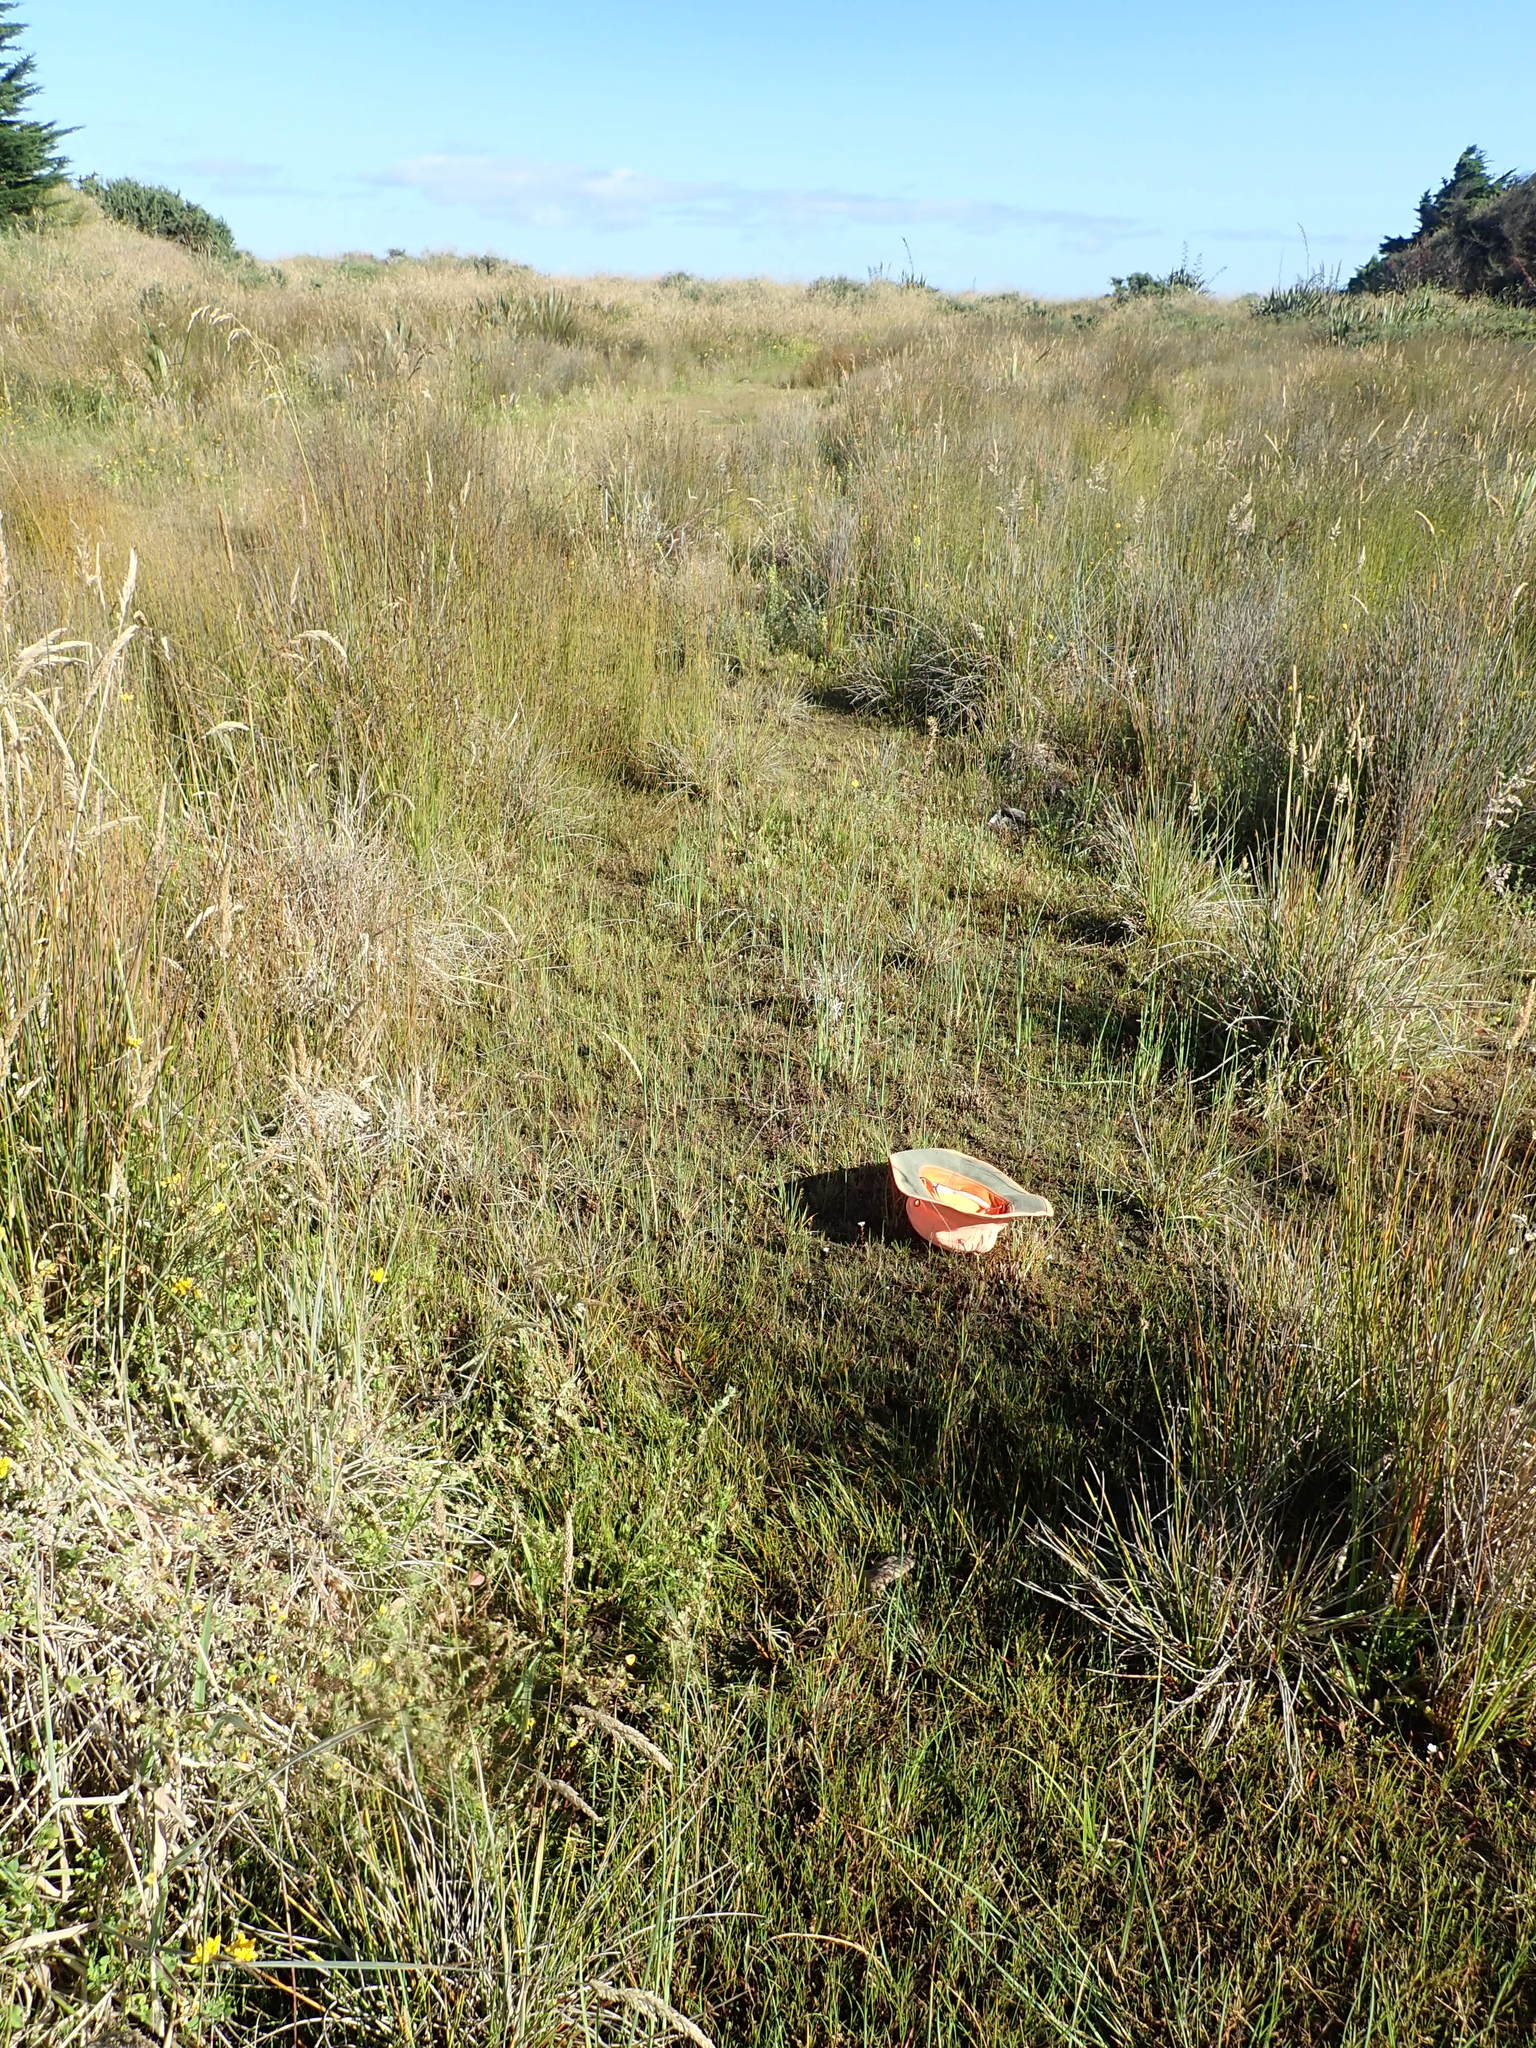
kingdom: Plantae
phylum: Tracheophyta
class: Magnoliopsida
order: Ericales
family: Primulaceae
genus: Samolus
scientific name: Samolus repens
